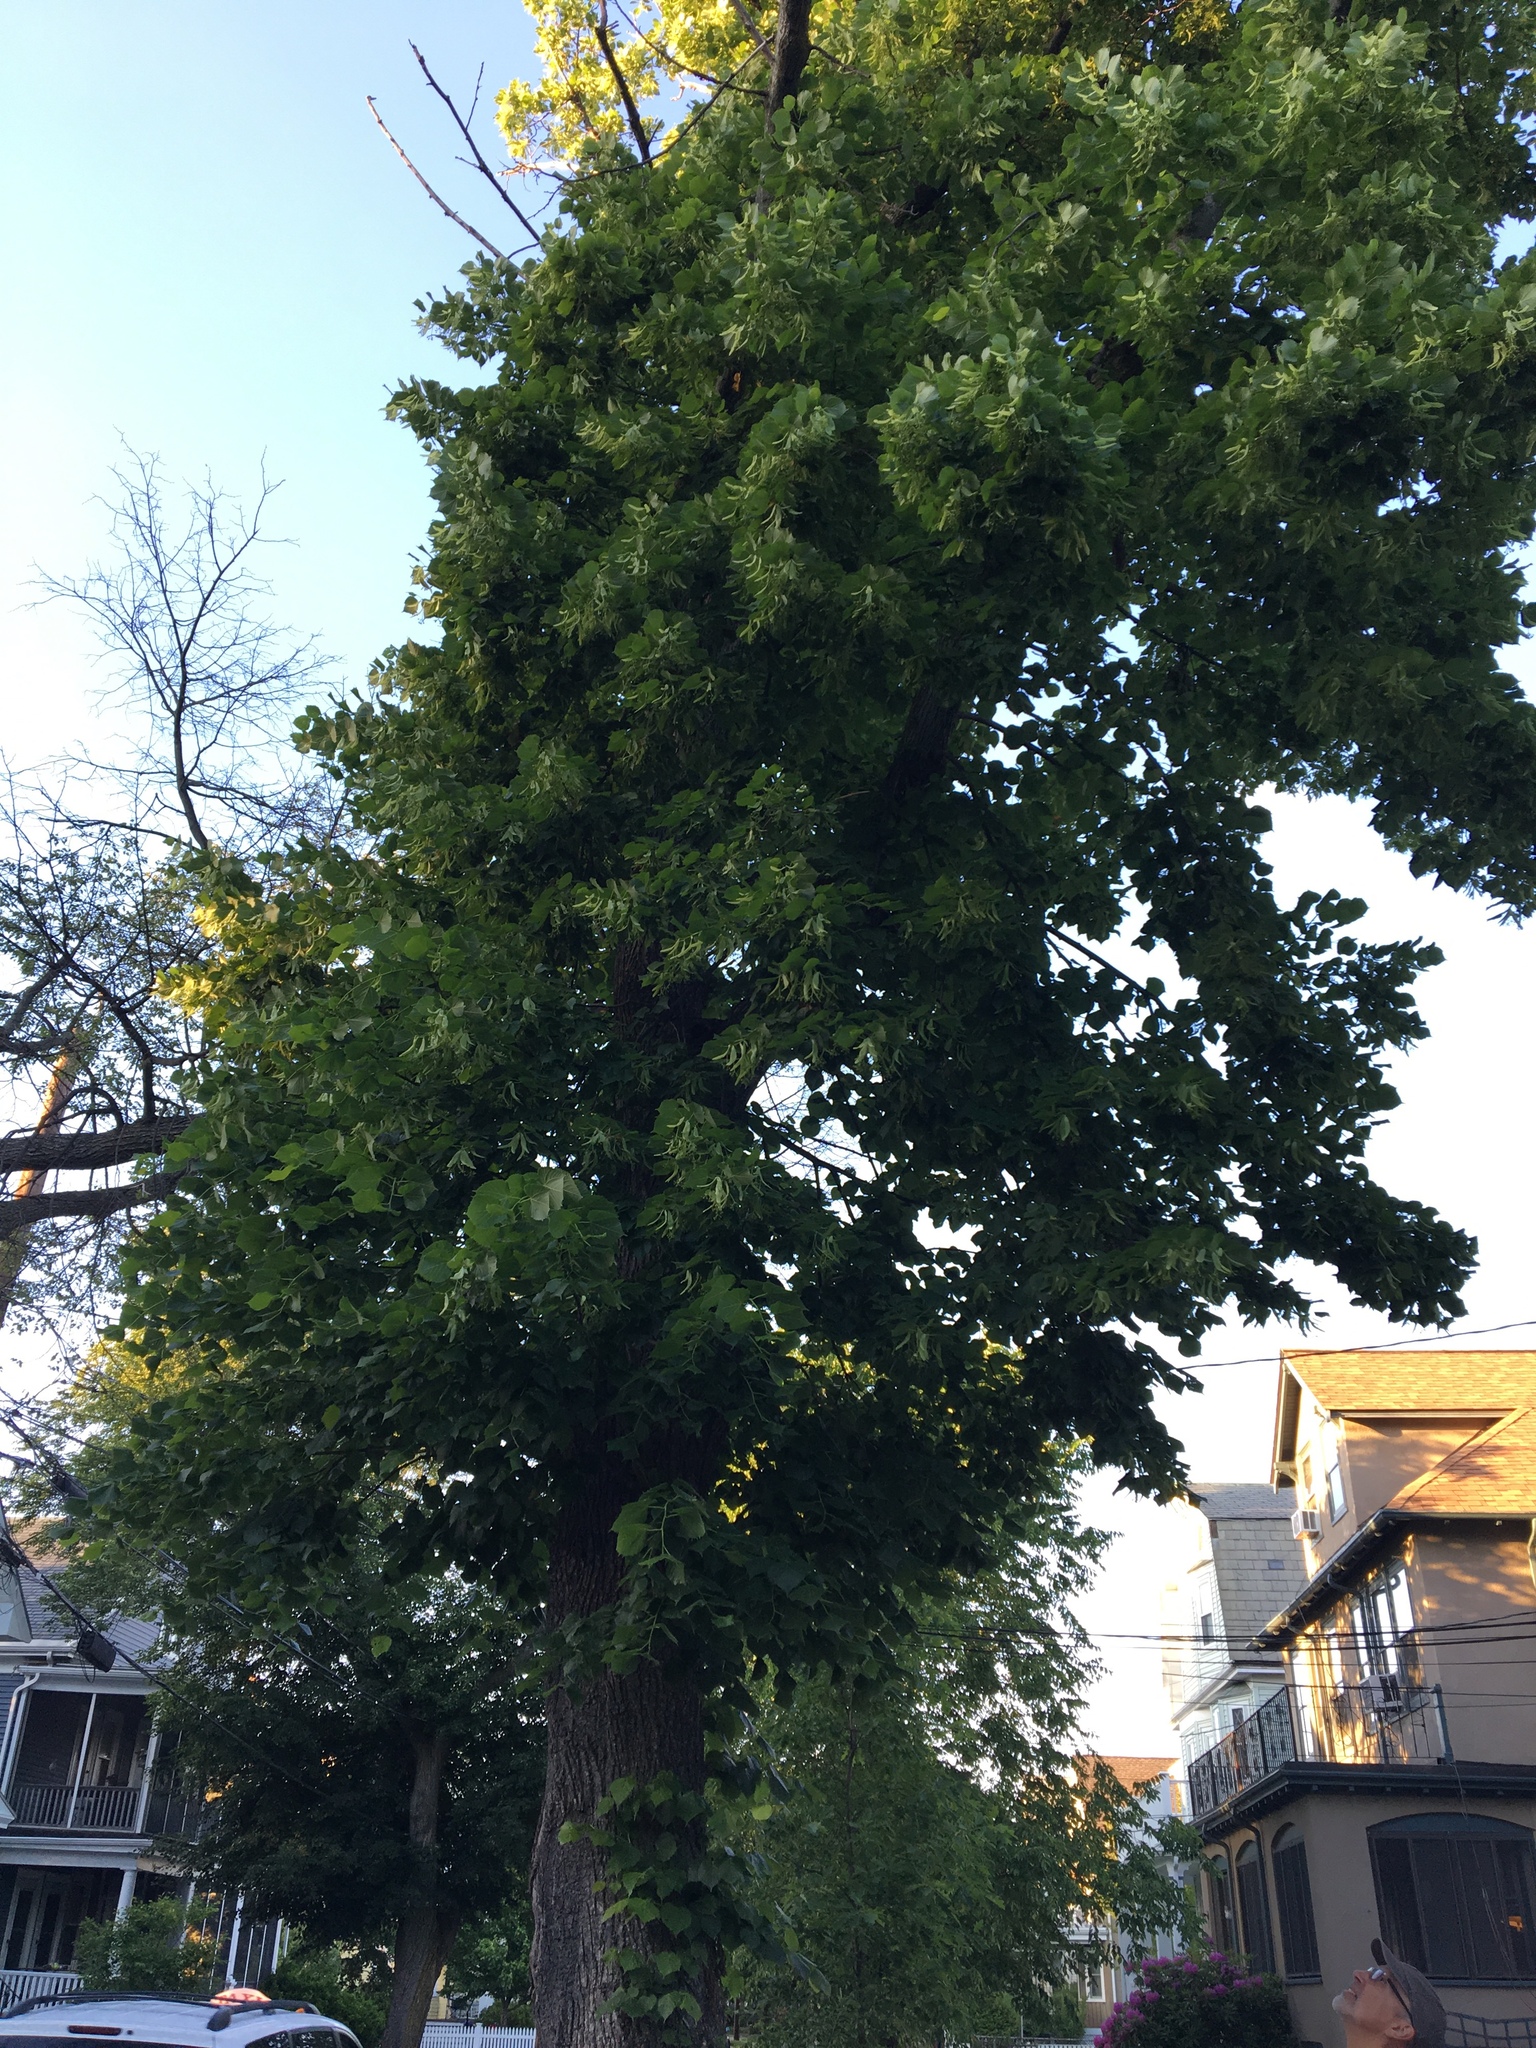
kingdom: Plantae
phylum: Tracheophyta
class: Magnoliopsida
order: Malvales
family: Malvaceae
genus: Tilia
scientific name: Tilia americana
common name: Basswood
